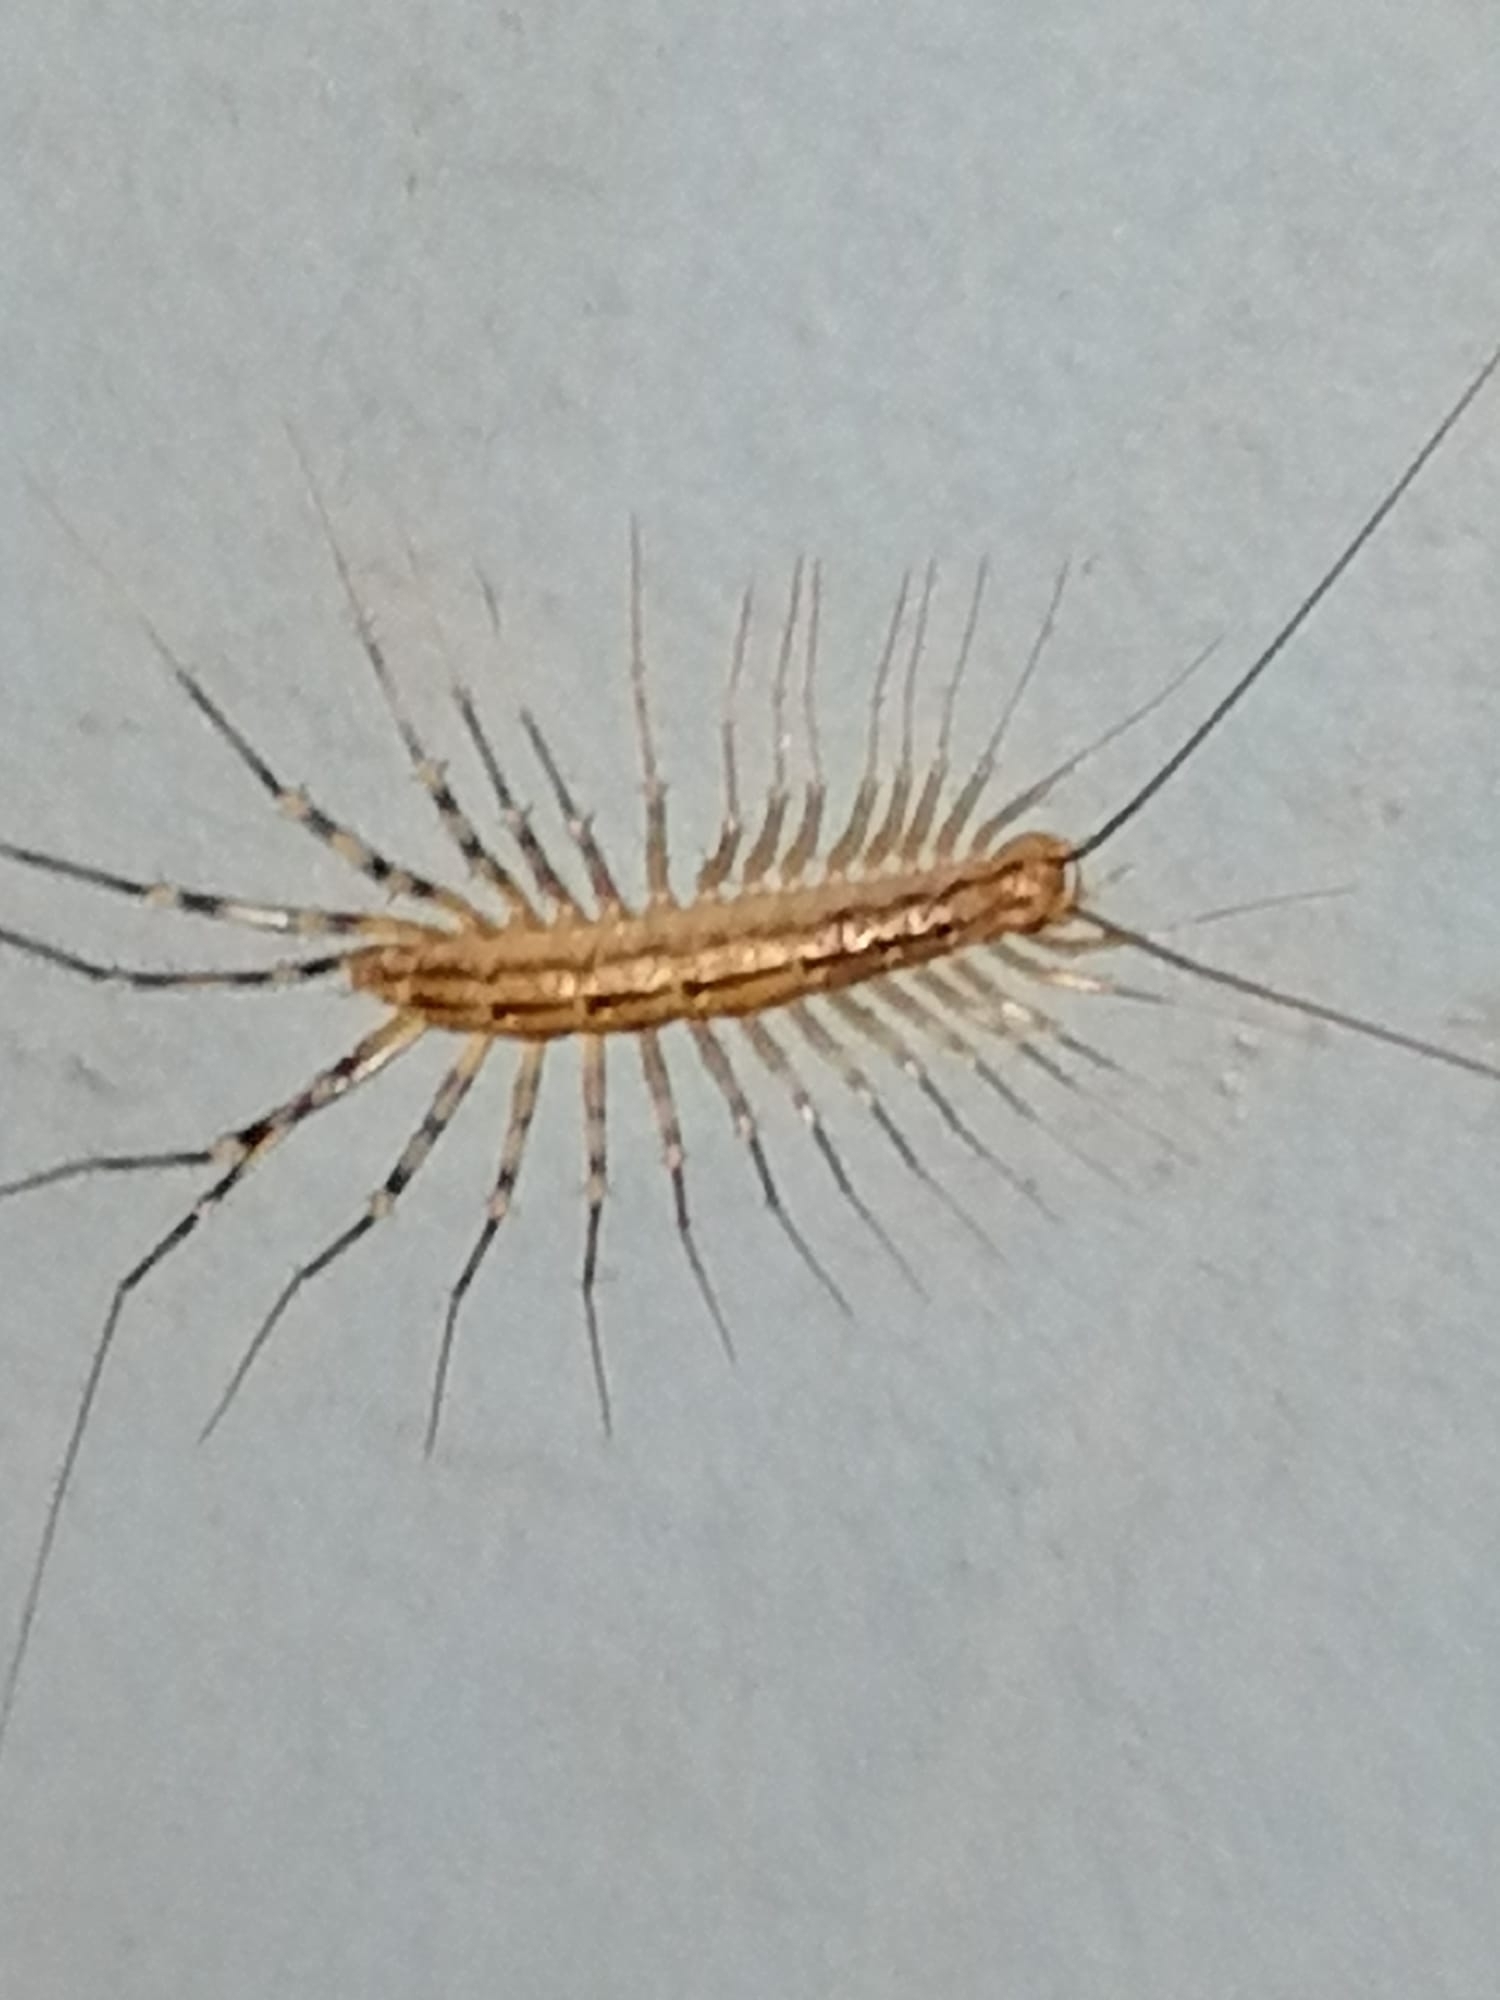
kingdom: Animalia
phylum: Arthropoda
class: Chilopoda
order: Scutigeromorpha
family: Scutigeridae
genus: Scutigera
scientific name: Scutigera coleoptrata
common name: House centipede
